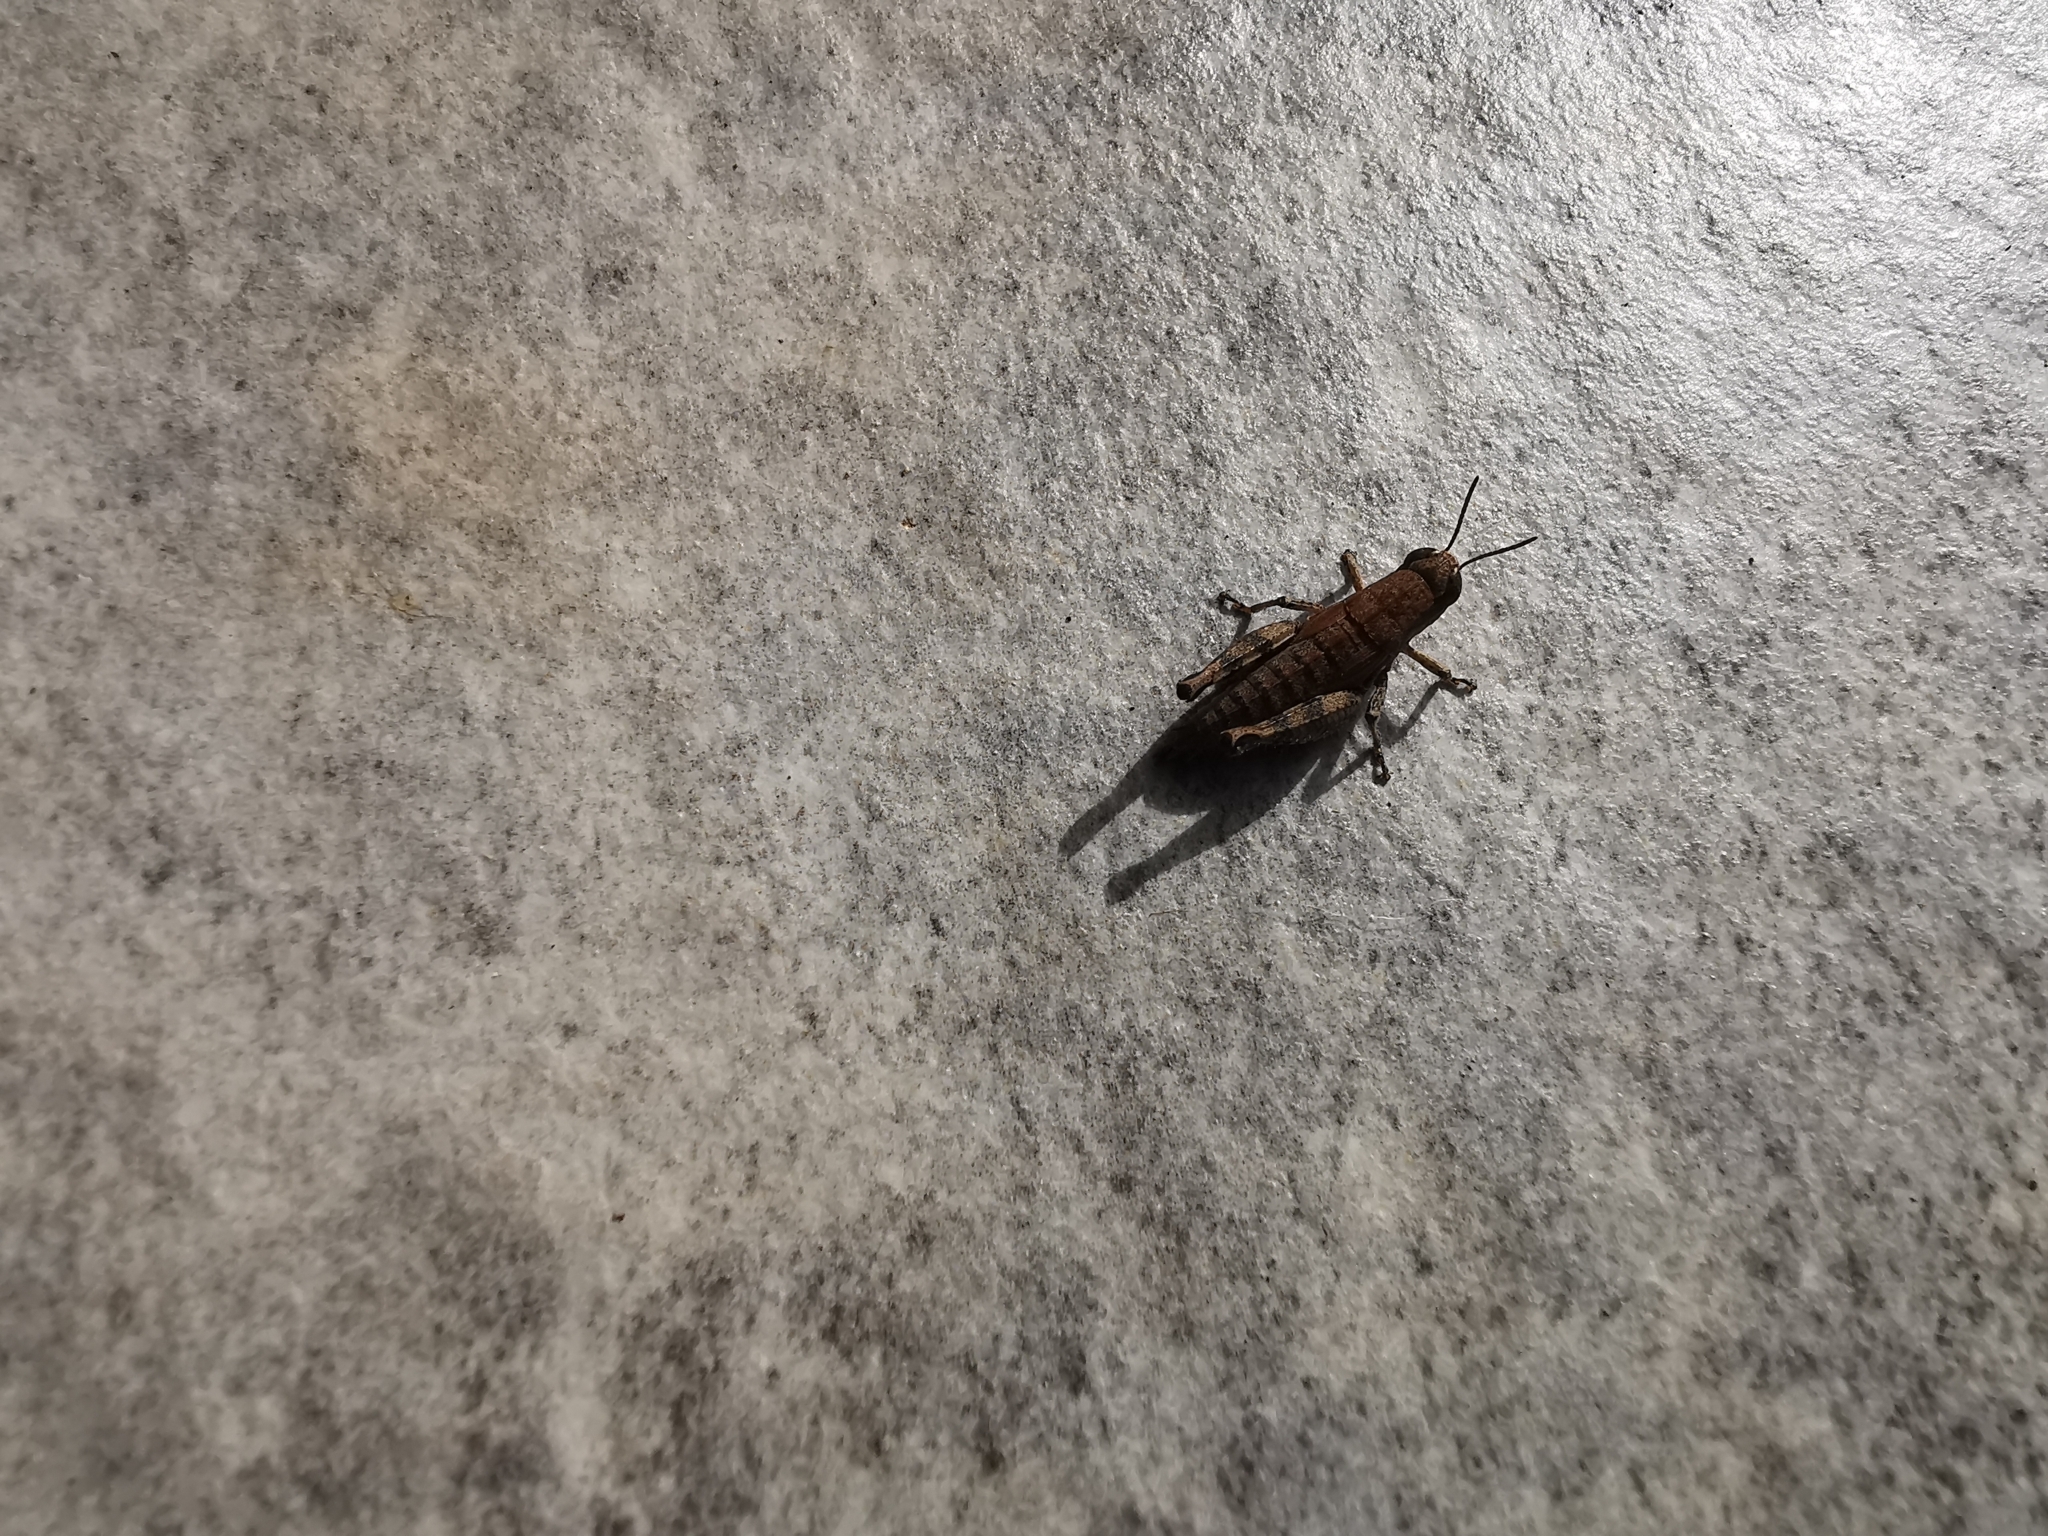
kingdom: Animalia
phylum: Arthropoda
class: Insecta
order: Orthoptera
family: Acrididae
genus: Pezotettix
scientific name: Pezotettix giornae
